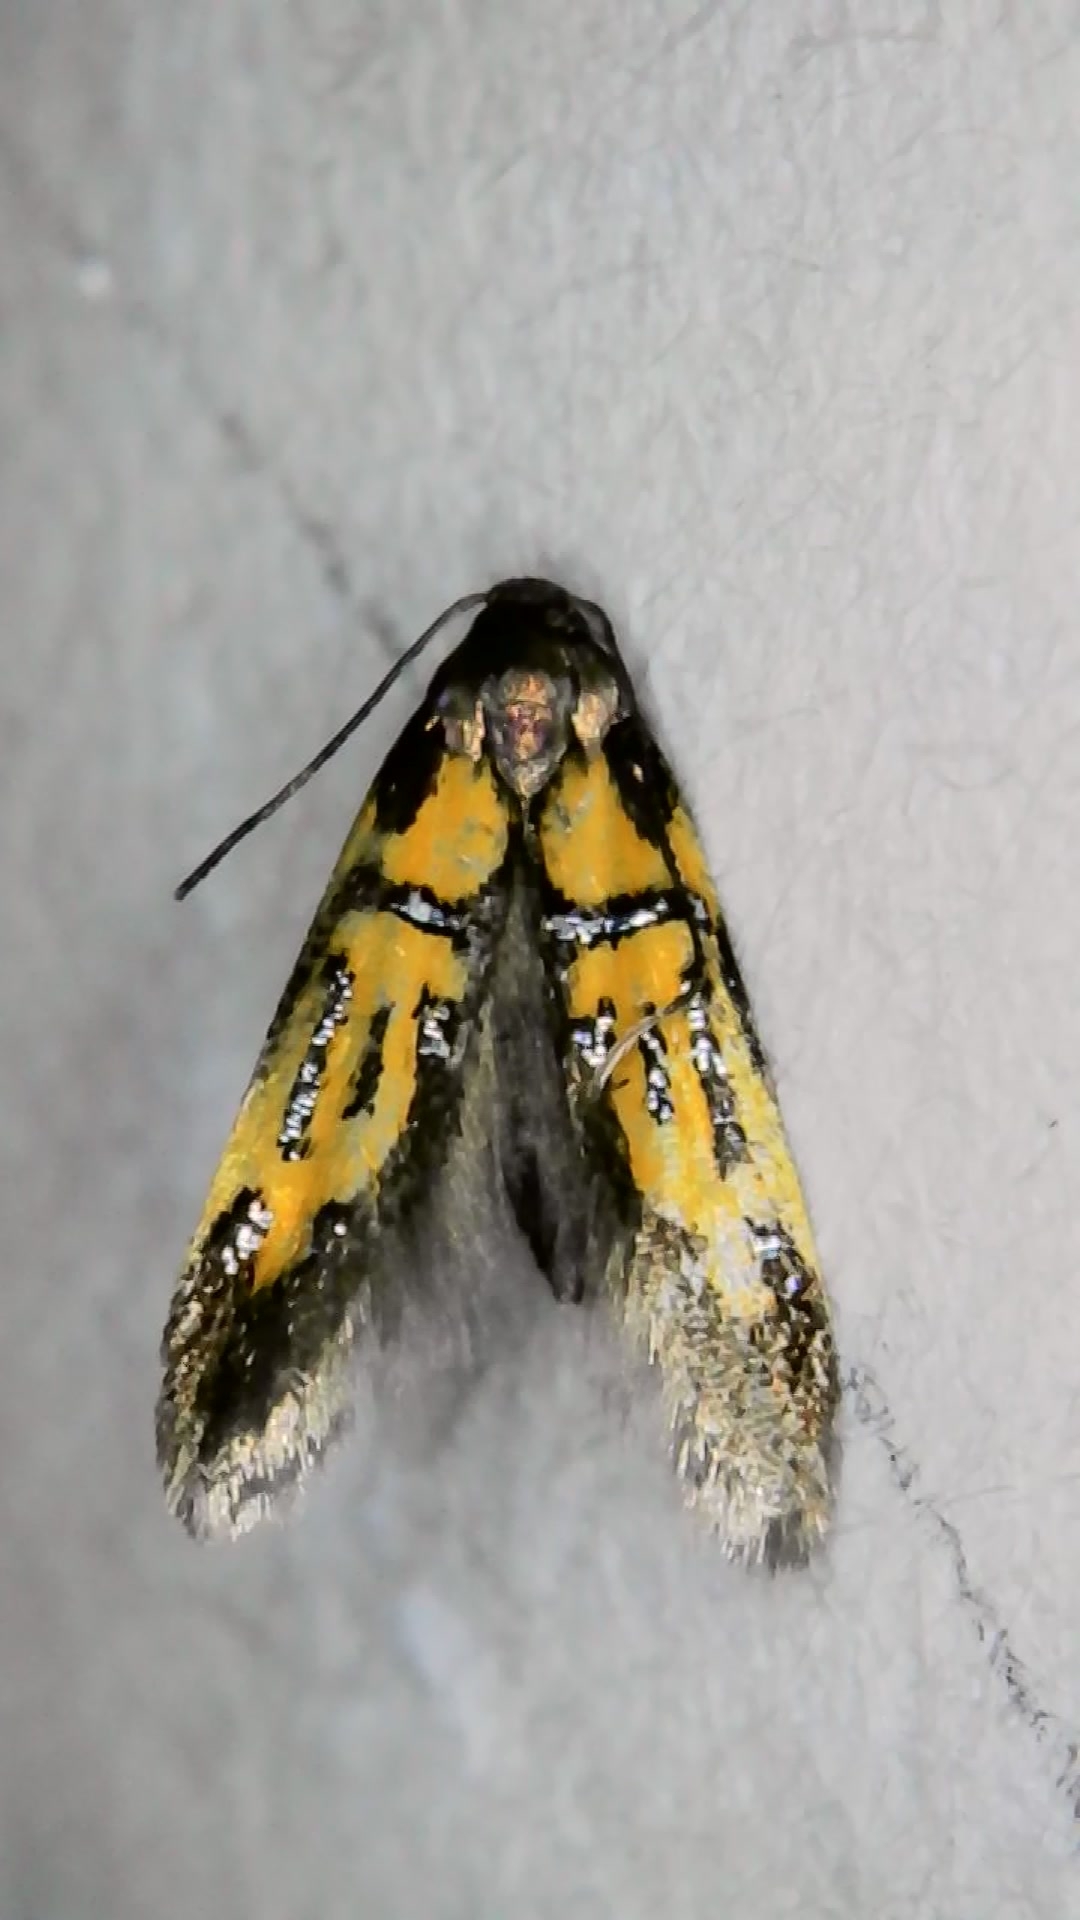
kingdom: Animalia
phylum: Arthropoda
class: Insecta
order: Lepidoptera
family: Oecophoridae
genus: Schiffermuelleria
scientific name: Schiffermuelleria schaefferella
